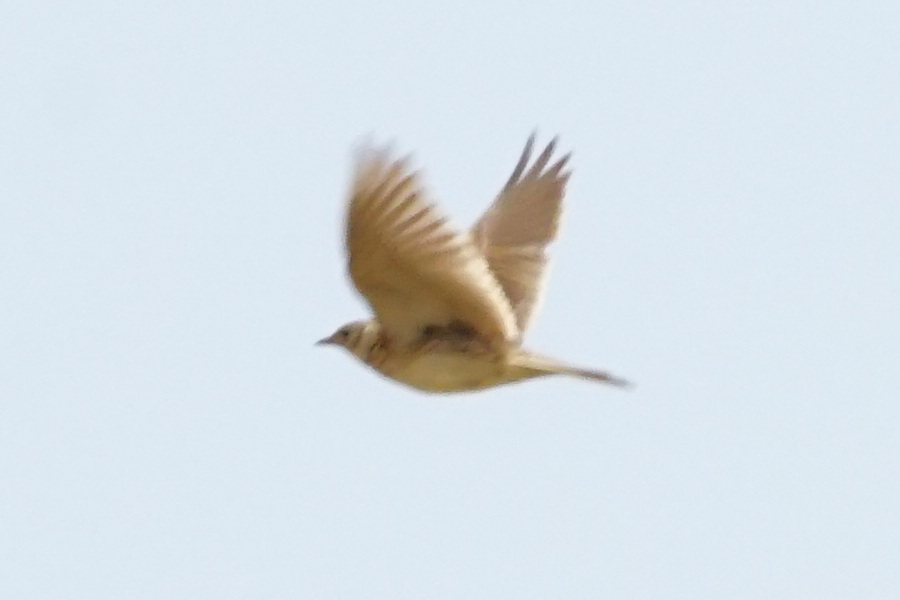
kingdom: Animalia
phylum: Chordata
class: Aves
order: Passeriformes
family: Alaudidae
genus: Alauda
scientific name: Alauda arvensis
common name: Eurasian skylark
